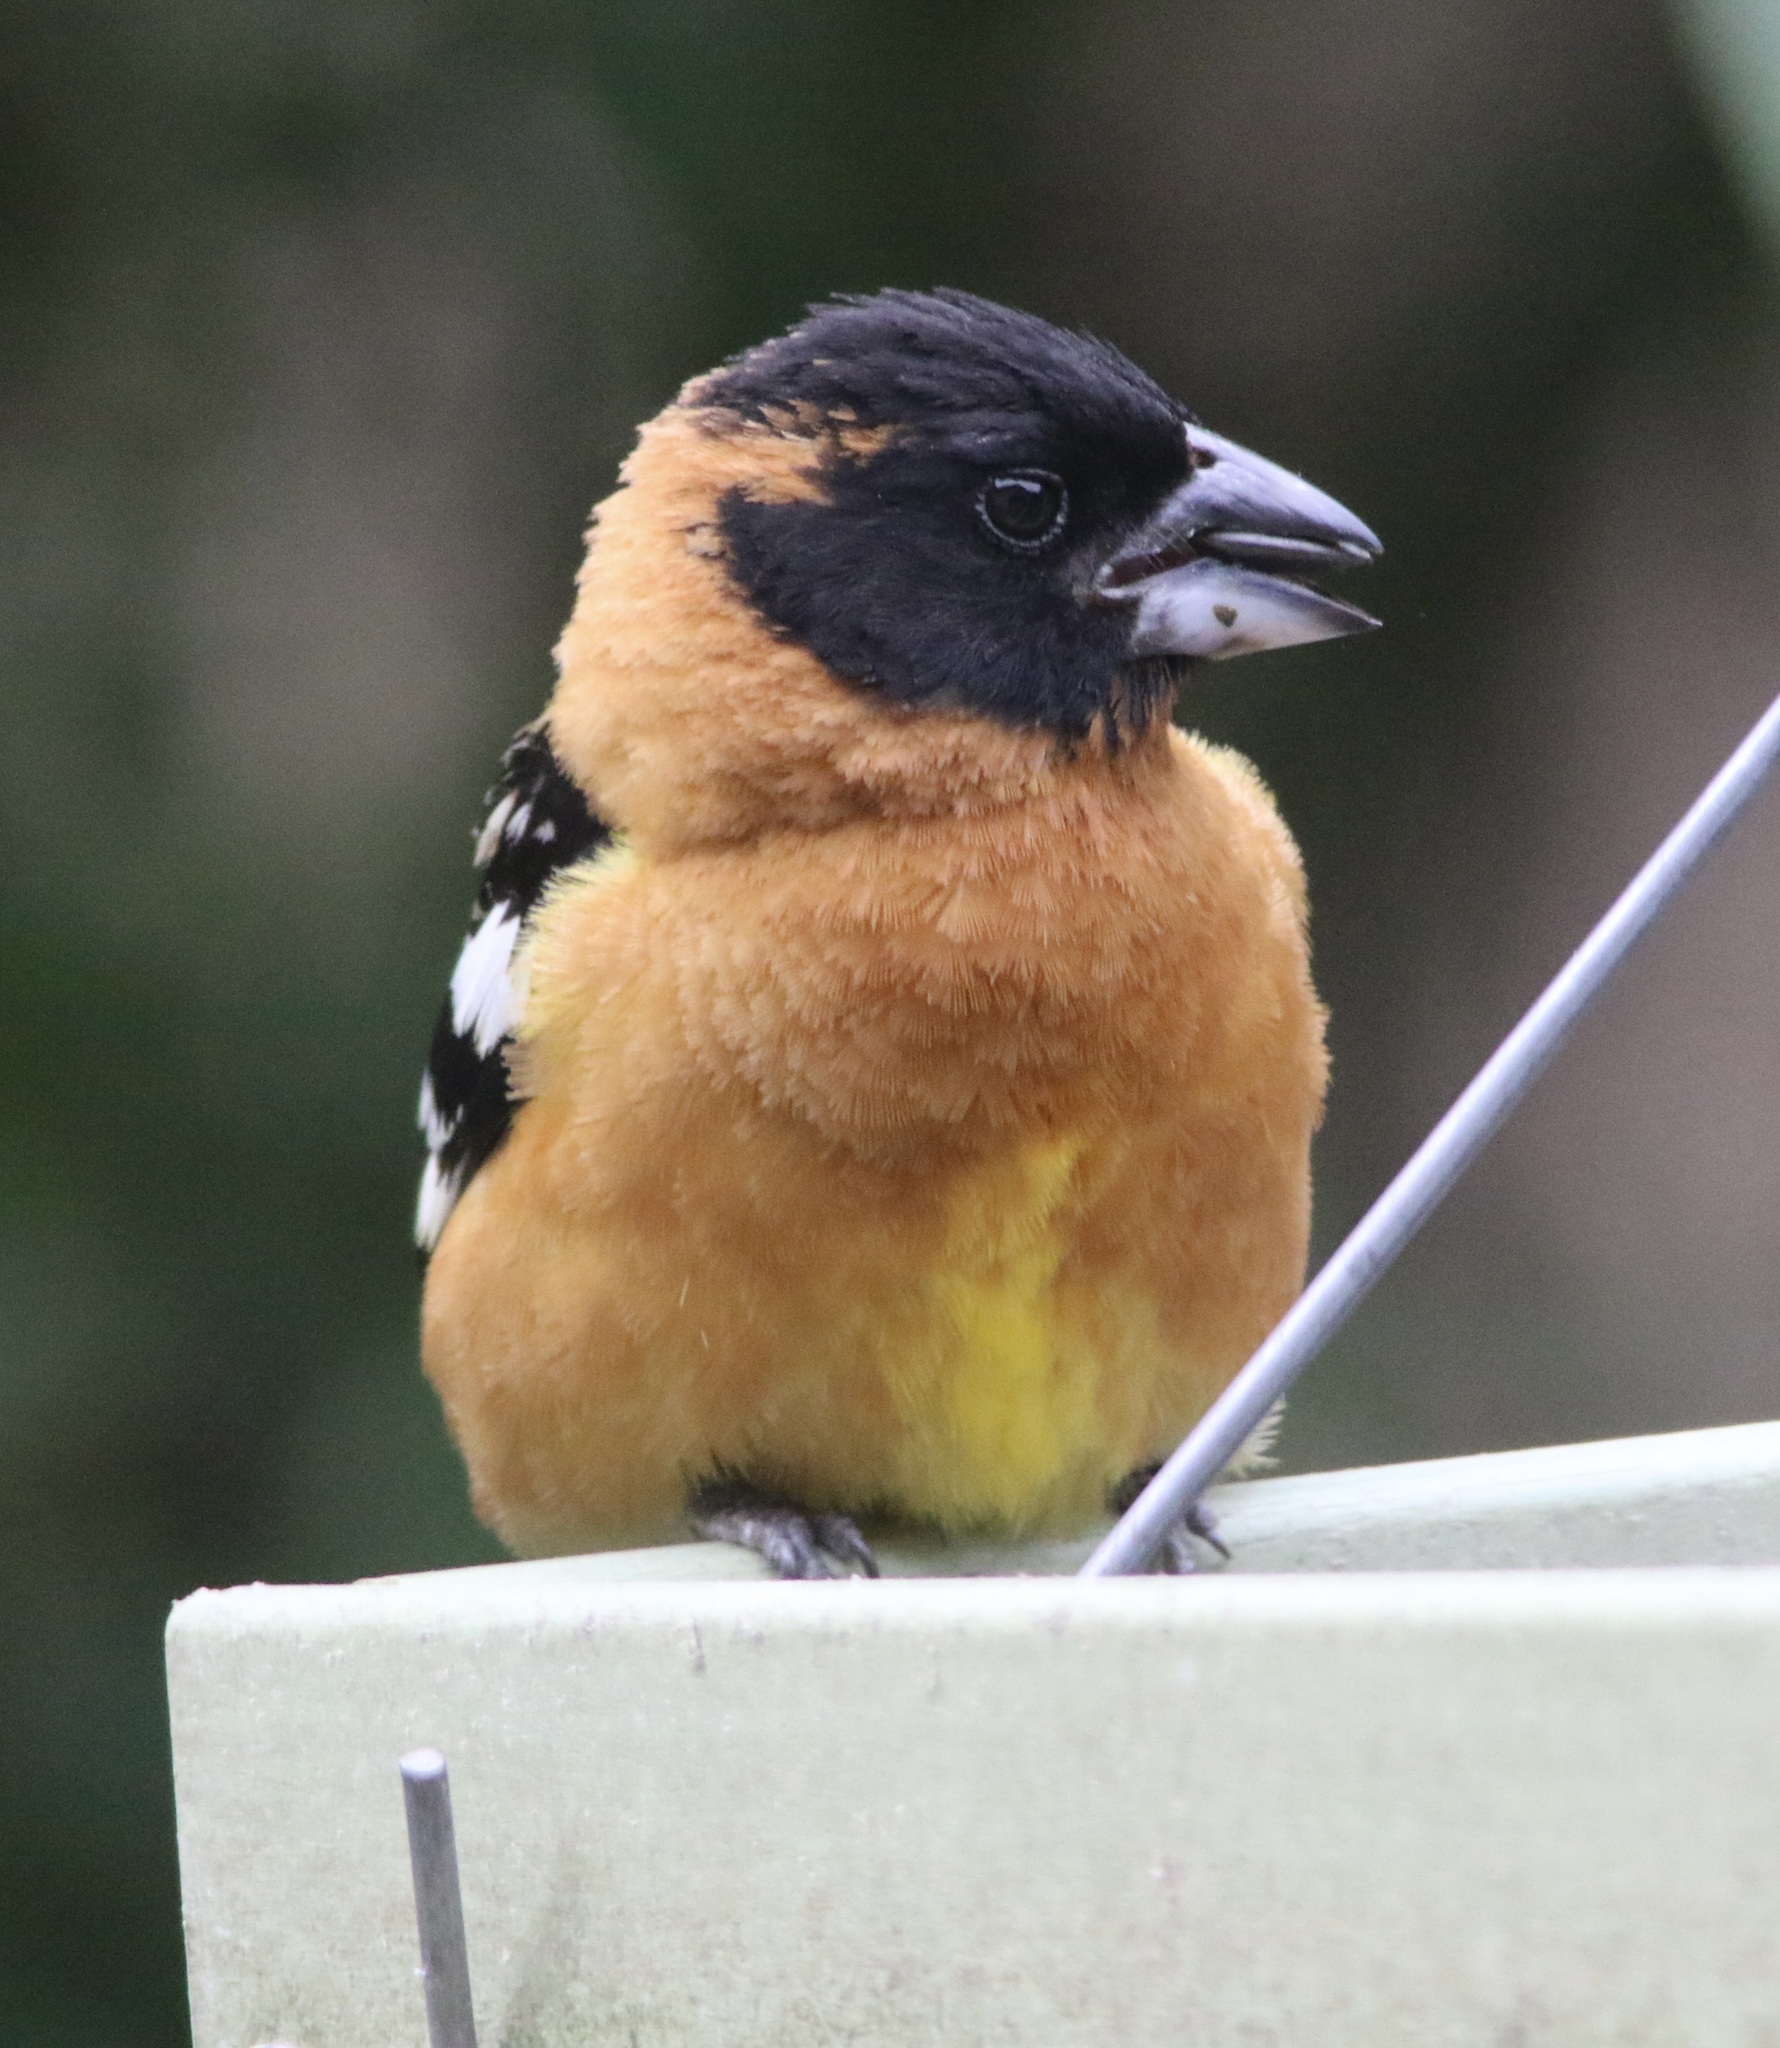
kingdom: Animalia
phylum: Chordata
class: Aves
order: Passeriformes
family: Cardinalidae
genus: Pheucticus
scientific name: Pheucticus melanocephalus
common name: Black-headed grosbeak
